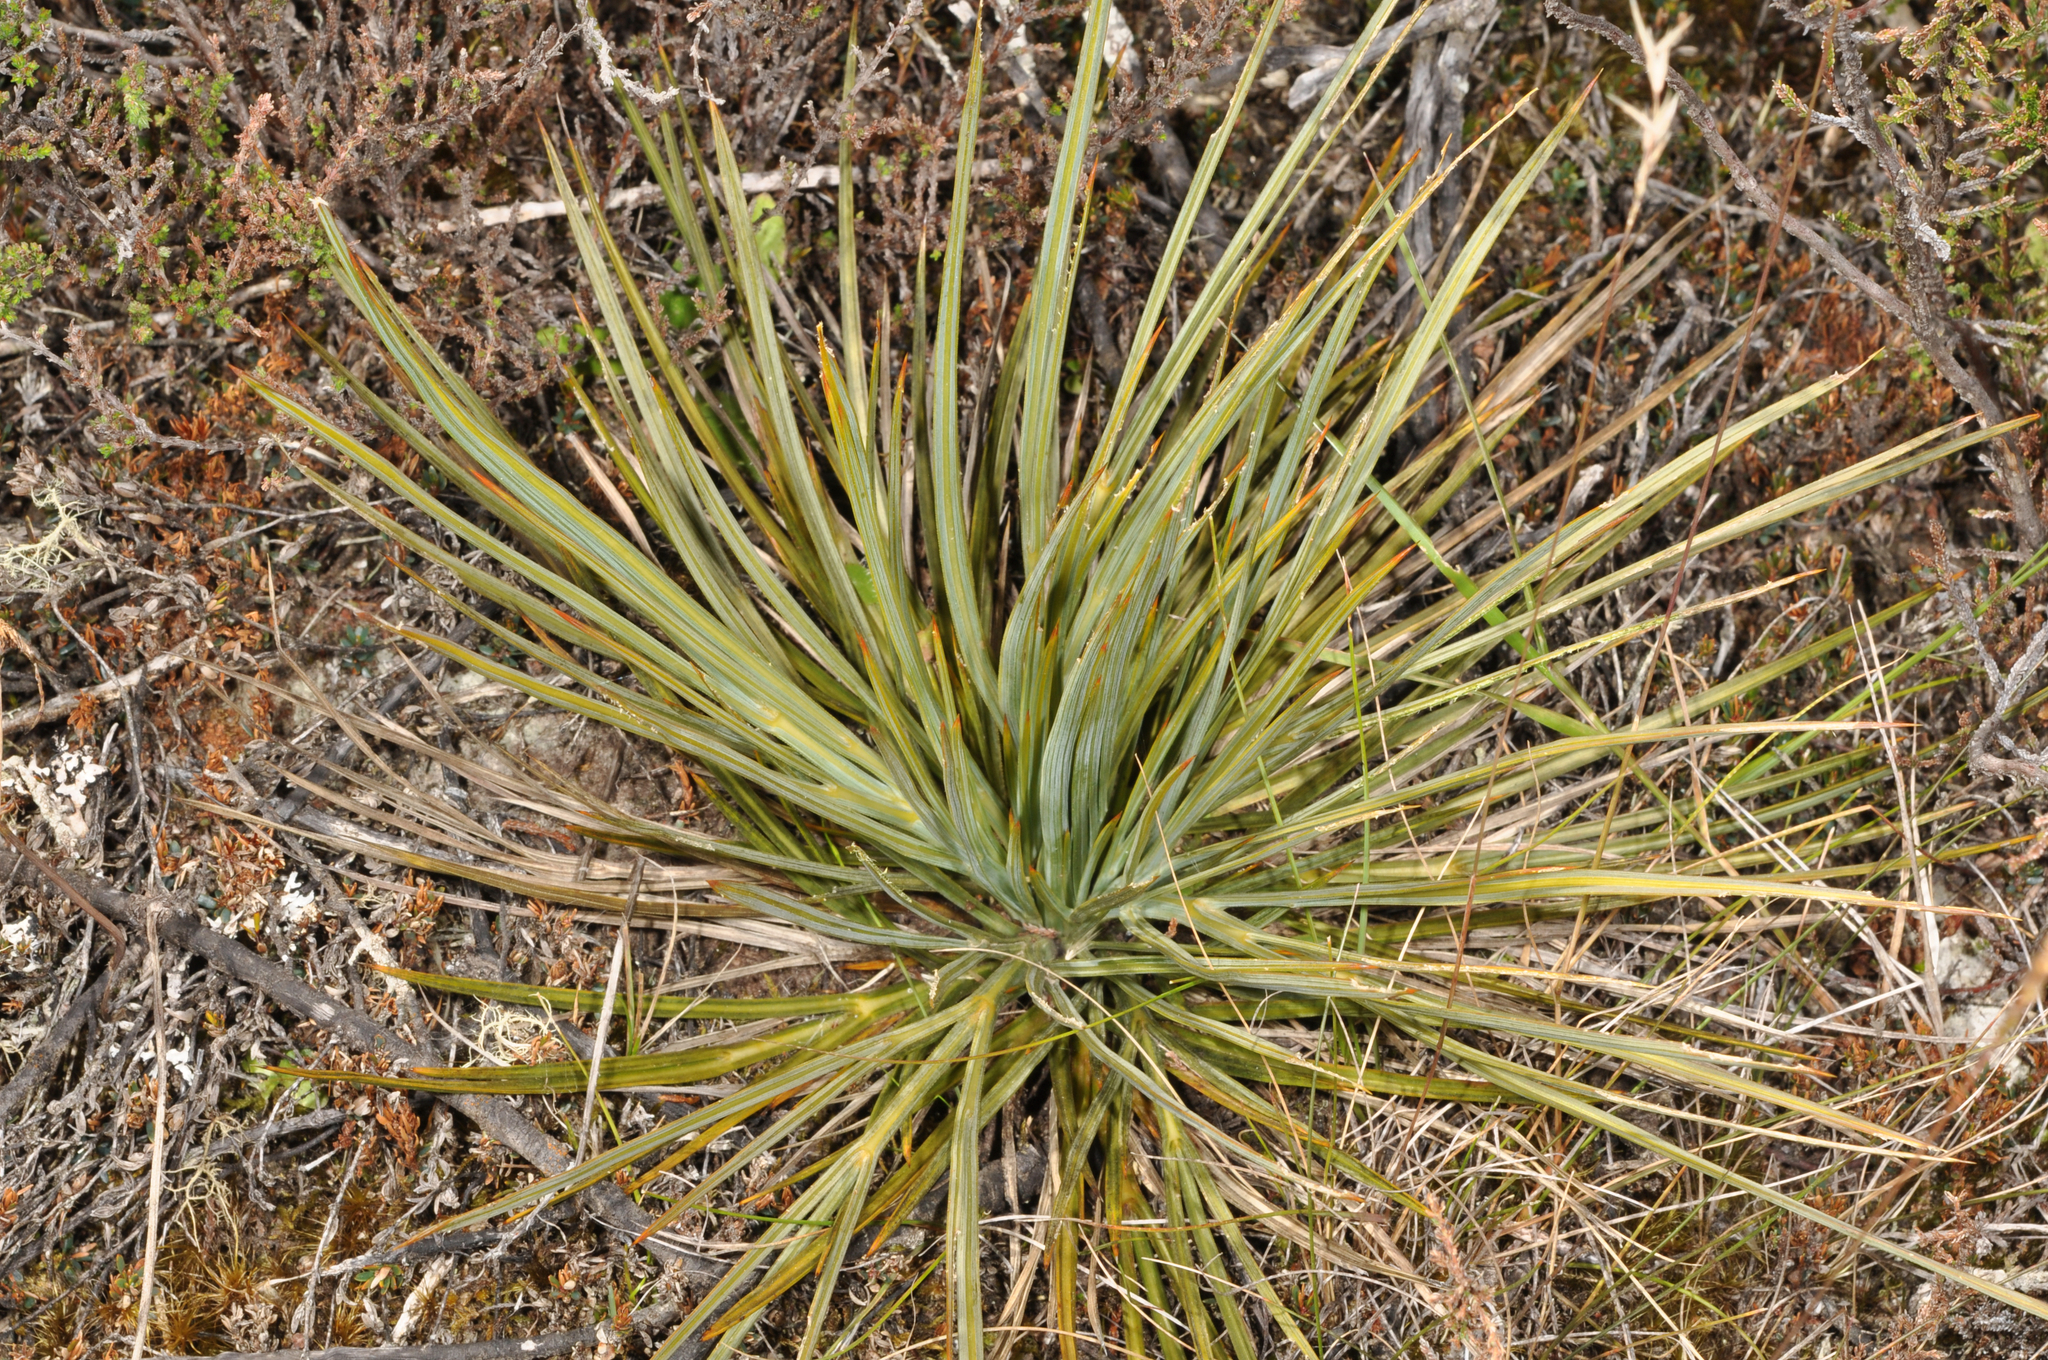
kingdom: Plantae
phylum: Tracheophyta
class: Magnoliopsida
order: Apiales
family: Apiaceae
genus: Aciphylla
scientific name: Aciphylla squarrosa
